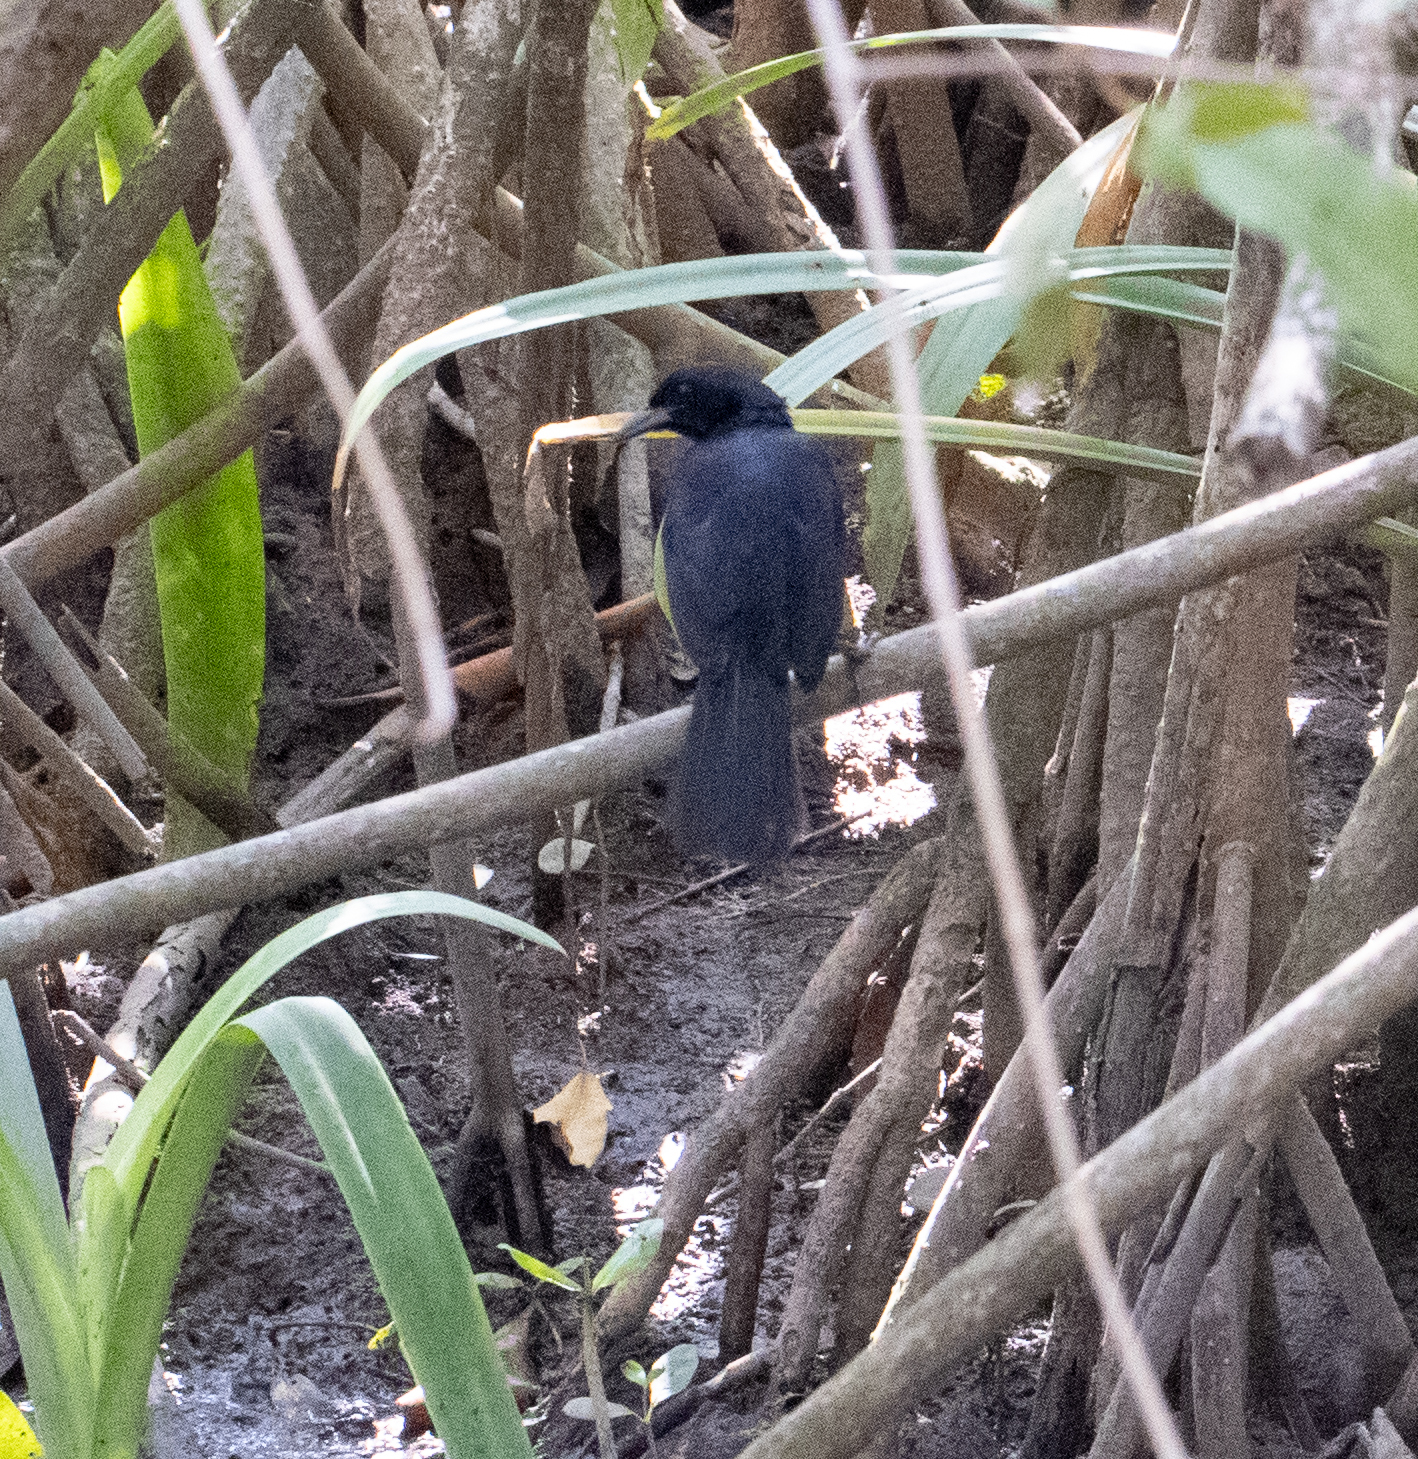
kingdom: Animalia
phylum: Chordata
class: Aves
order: Passeriformes
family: Icteridae
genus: Dives
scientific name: Dives dives
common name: Melodious blackbird
